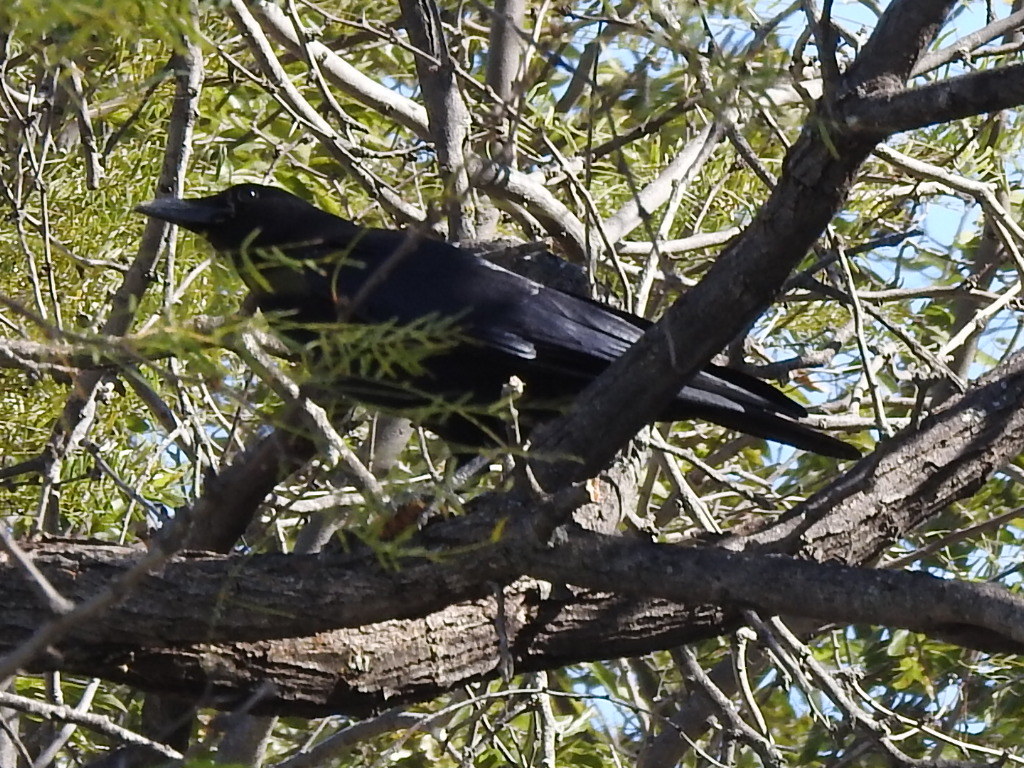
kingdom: Animalia
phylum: Chordata
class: Aves
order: Passeriformes
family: Corvidae
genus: Corvus
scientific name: Corvus brachyrhynchos
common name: American crow
